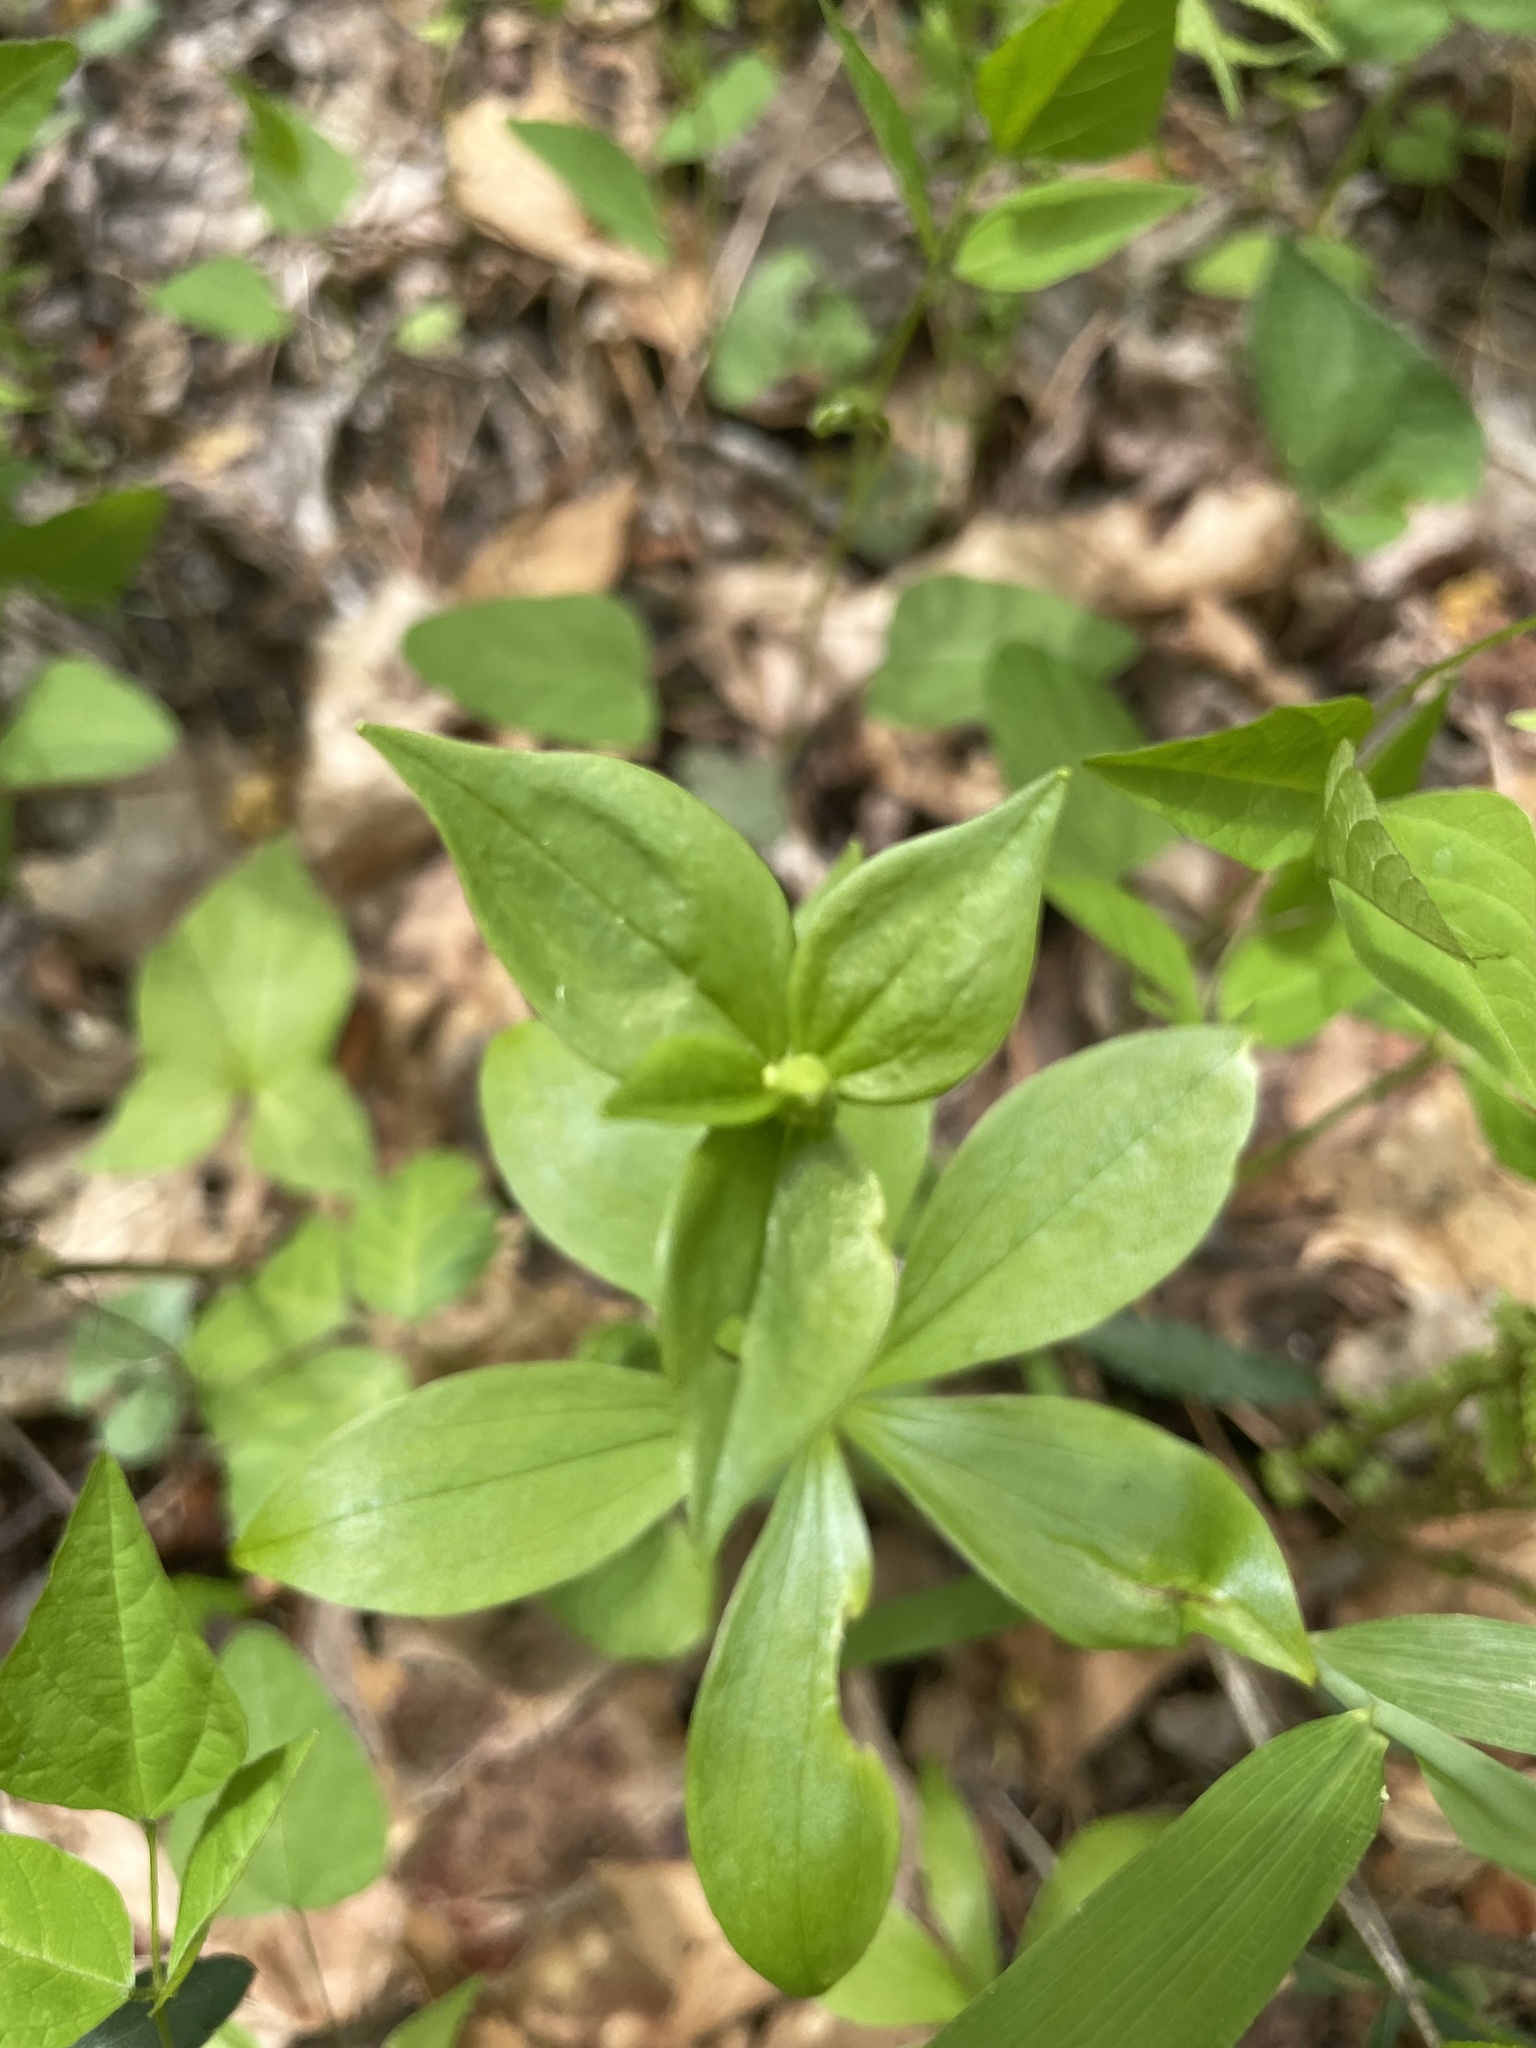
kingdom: Plantae
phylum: Tracheophyta
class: Liliopsida
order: Liliales
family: Liliaceae
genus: Medeola
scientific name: Medeola virginiana
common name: Indian cucumber-root
